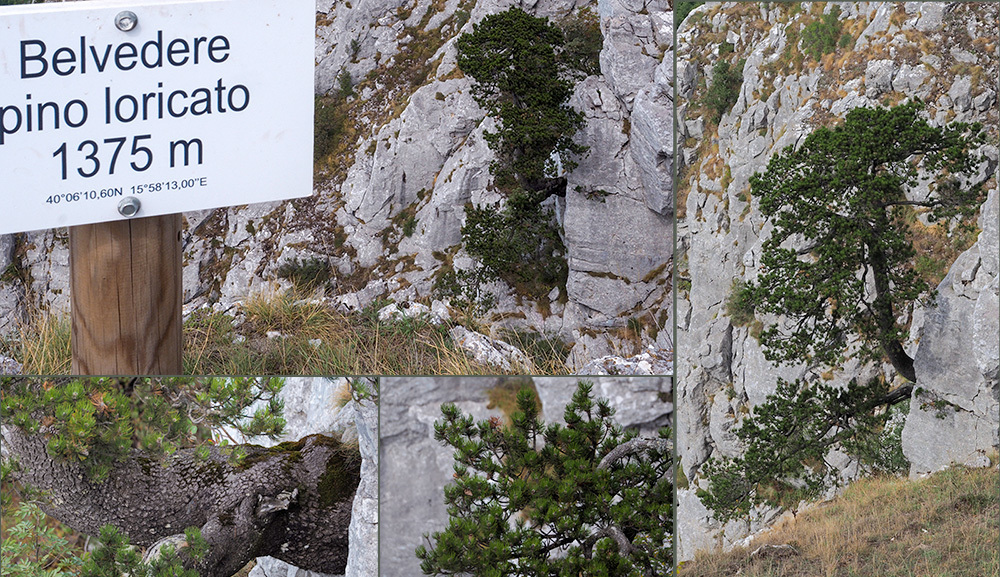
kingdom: Plantae
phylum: Tracheophyta
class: Pinopsida
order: Pinales
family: Pinaceae
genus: Pinus
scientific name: Pinus heldreichii
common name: Bosnian pine
